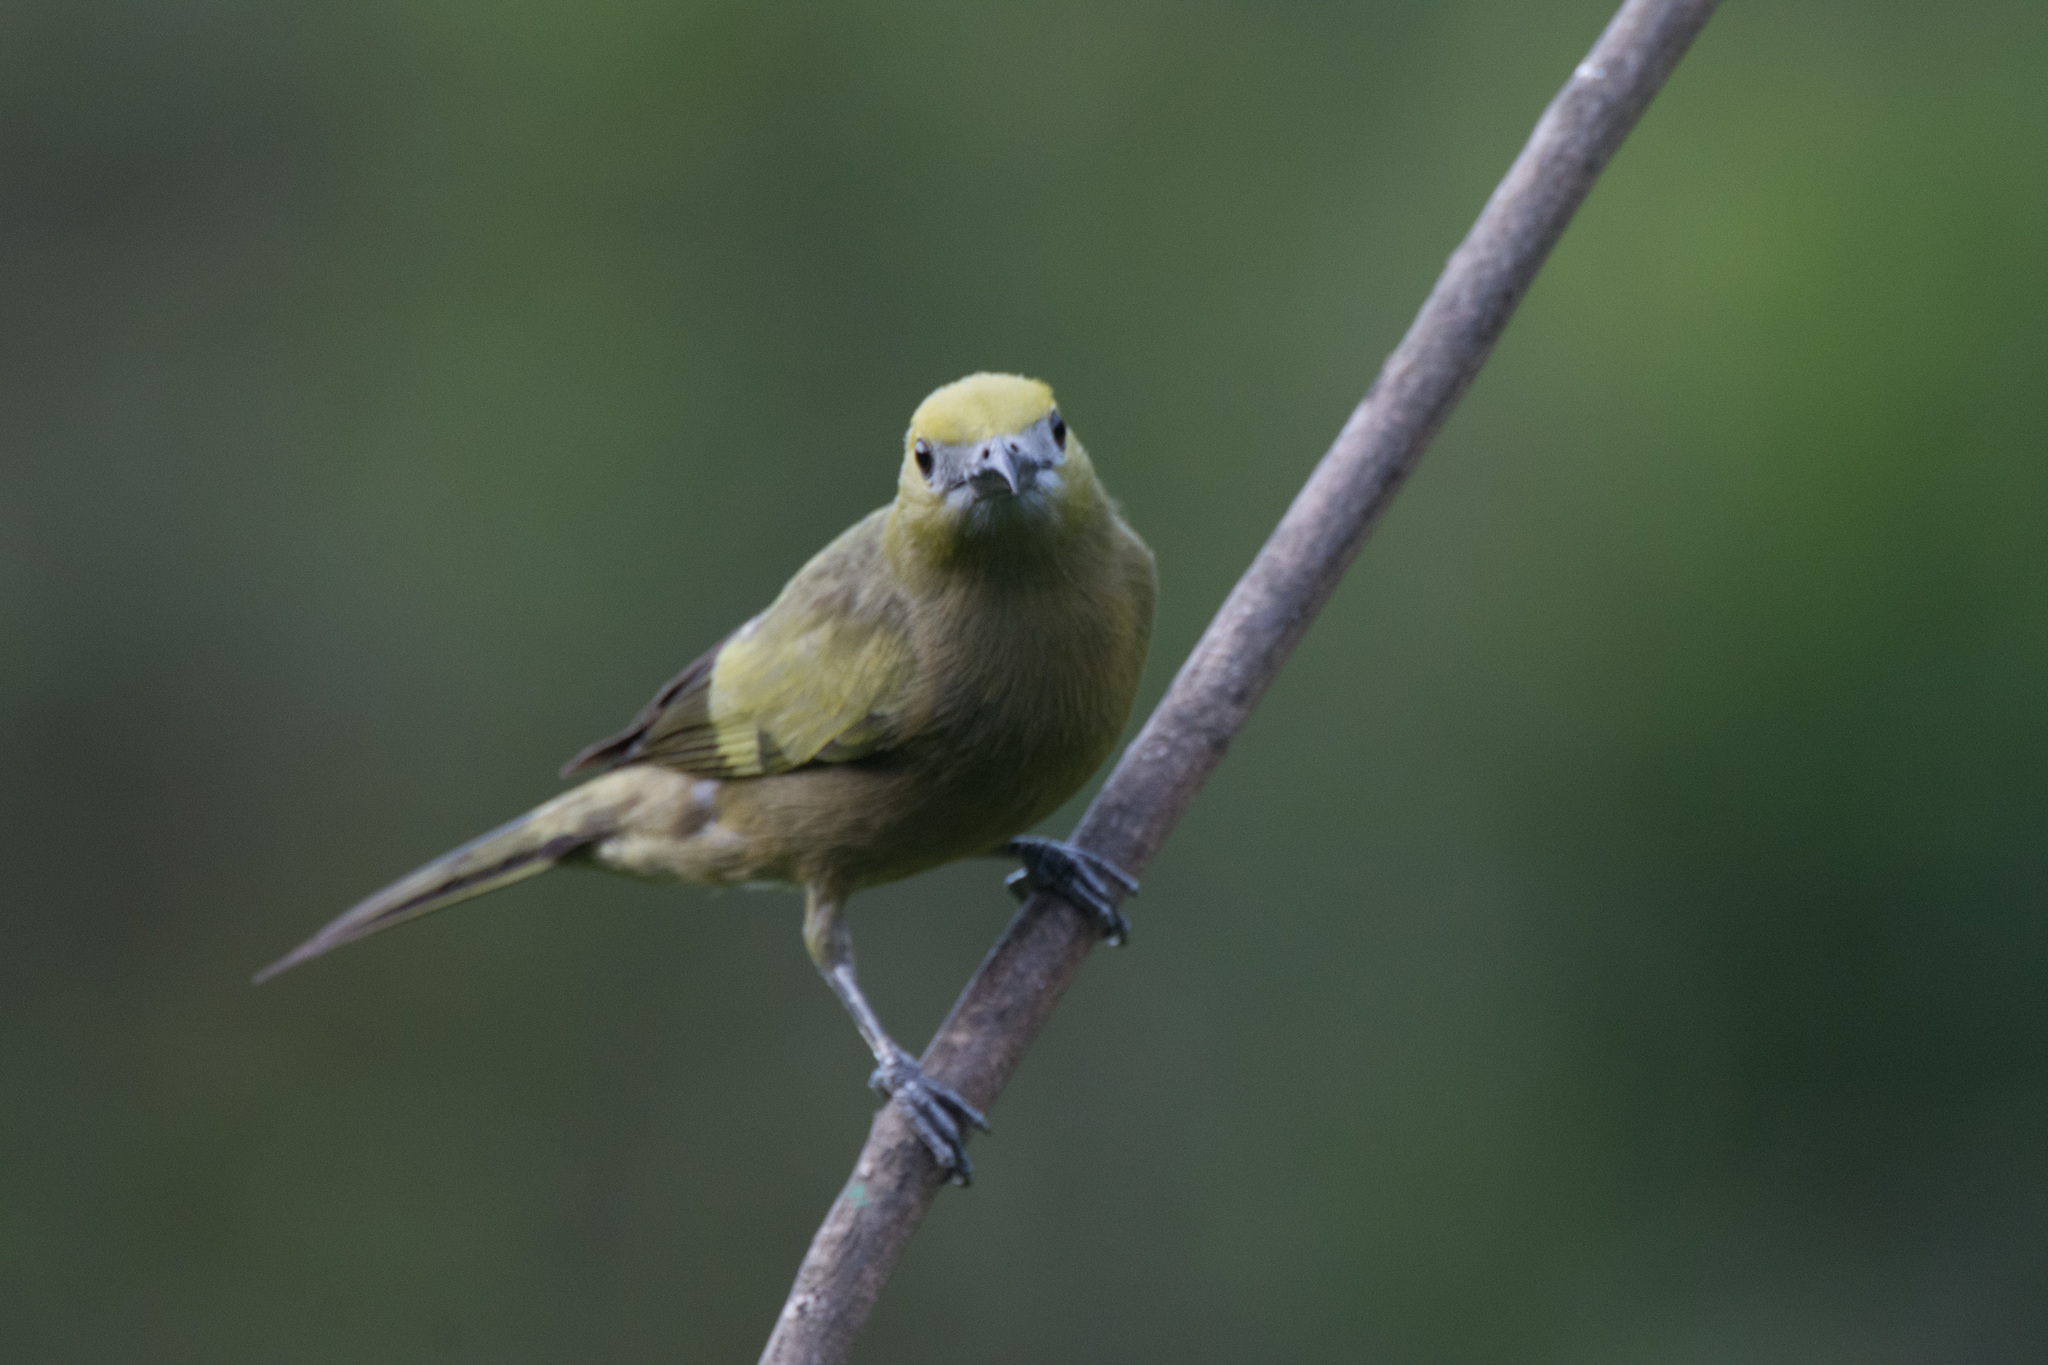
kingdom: Animalia
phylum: Chordata
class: Aves
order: Passeriformes
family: Thraupidae
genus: Thraupis
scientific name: Thraupis palmarum
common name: Palm tanager
